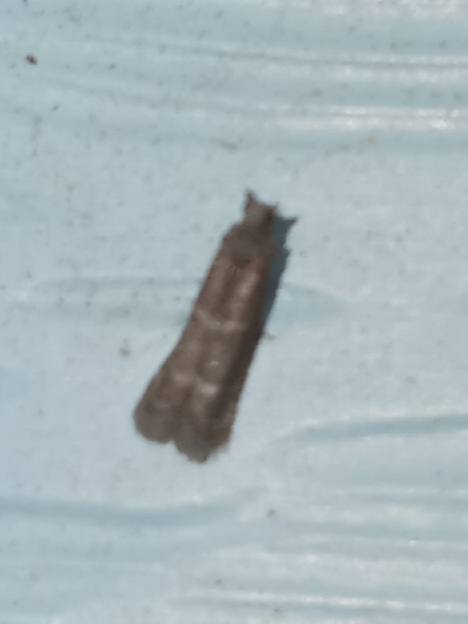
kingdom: Animalia
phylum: Arthropoda
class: Insecta
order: Lepidoptera
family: Pyralidae
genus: Cabnia
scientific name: Cabnia myronella
